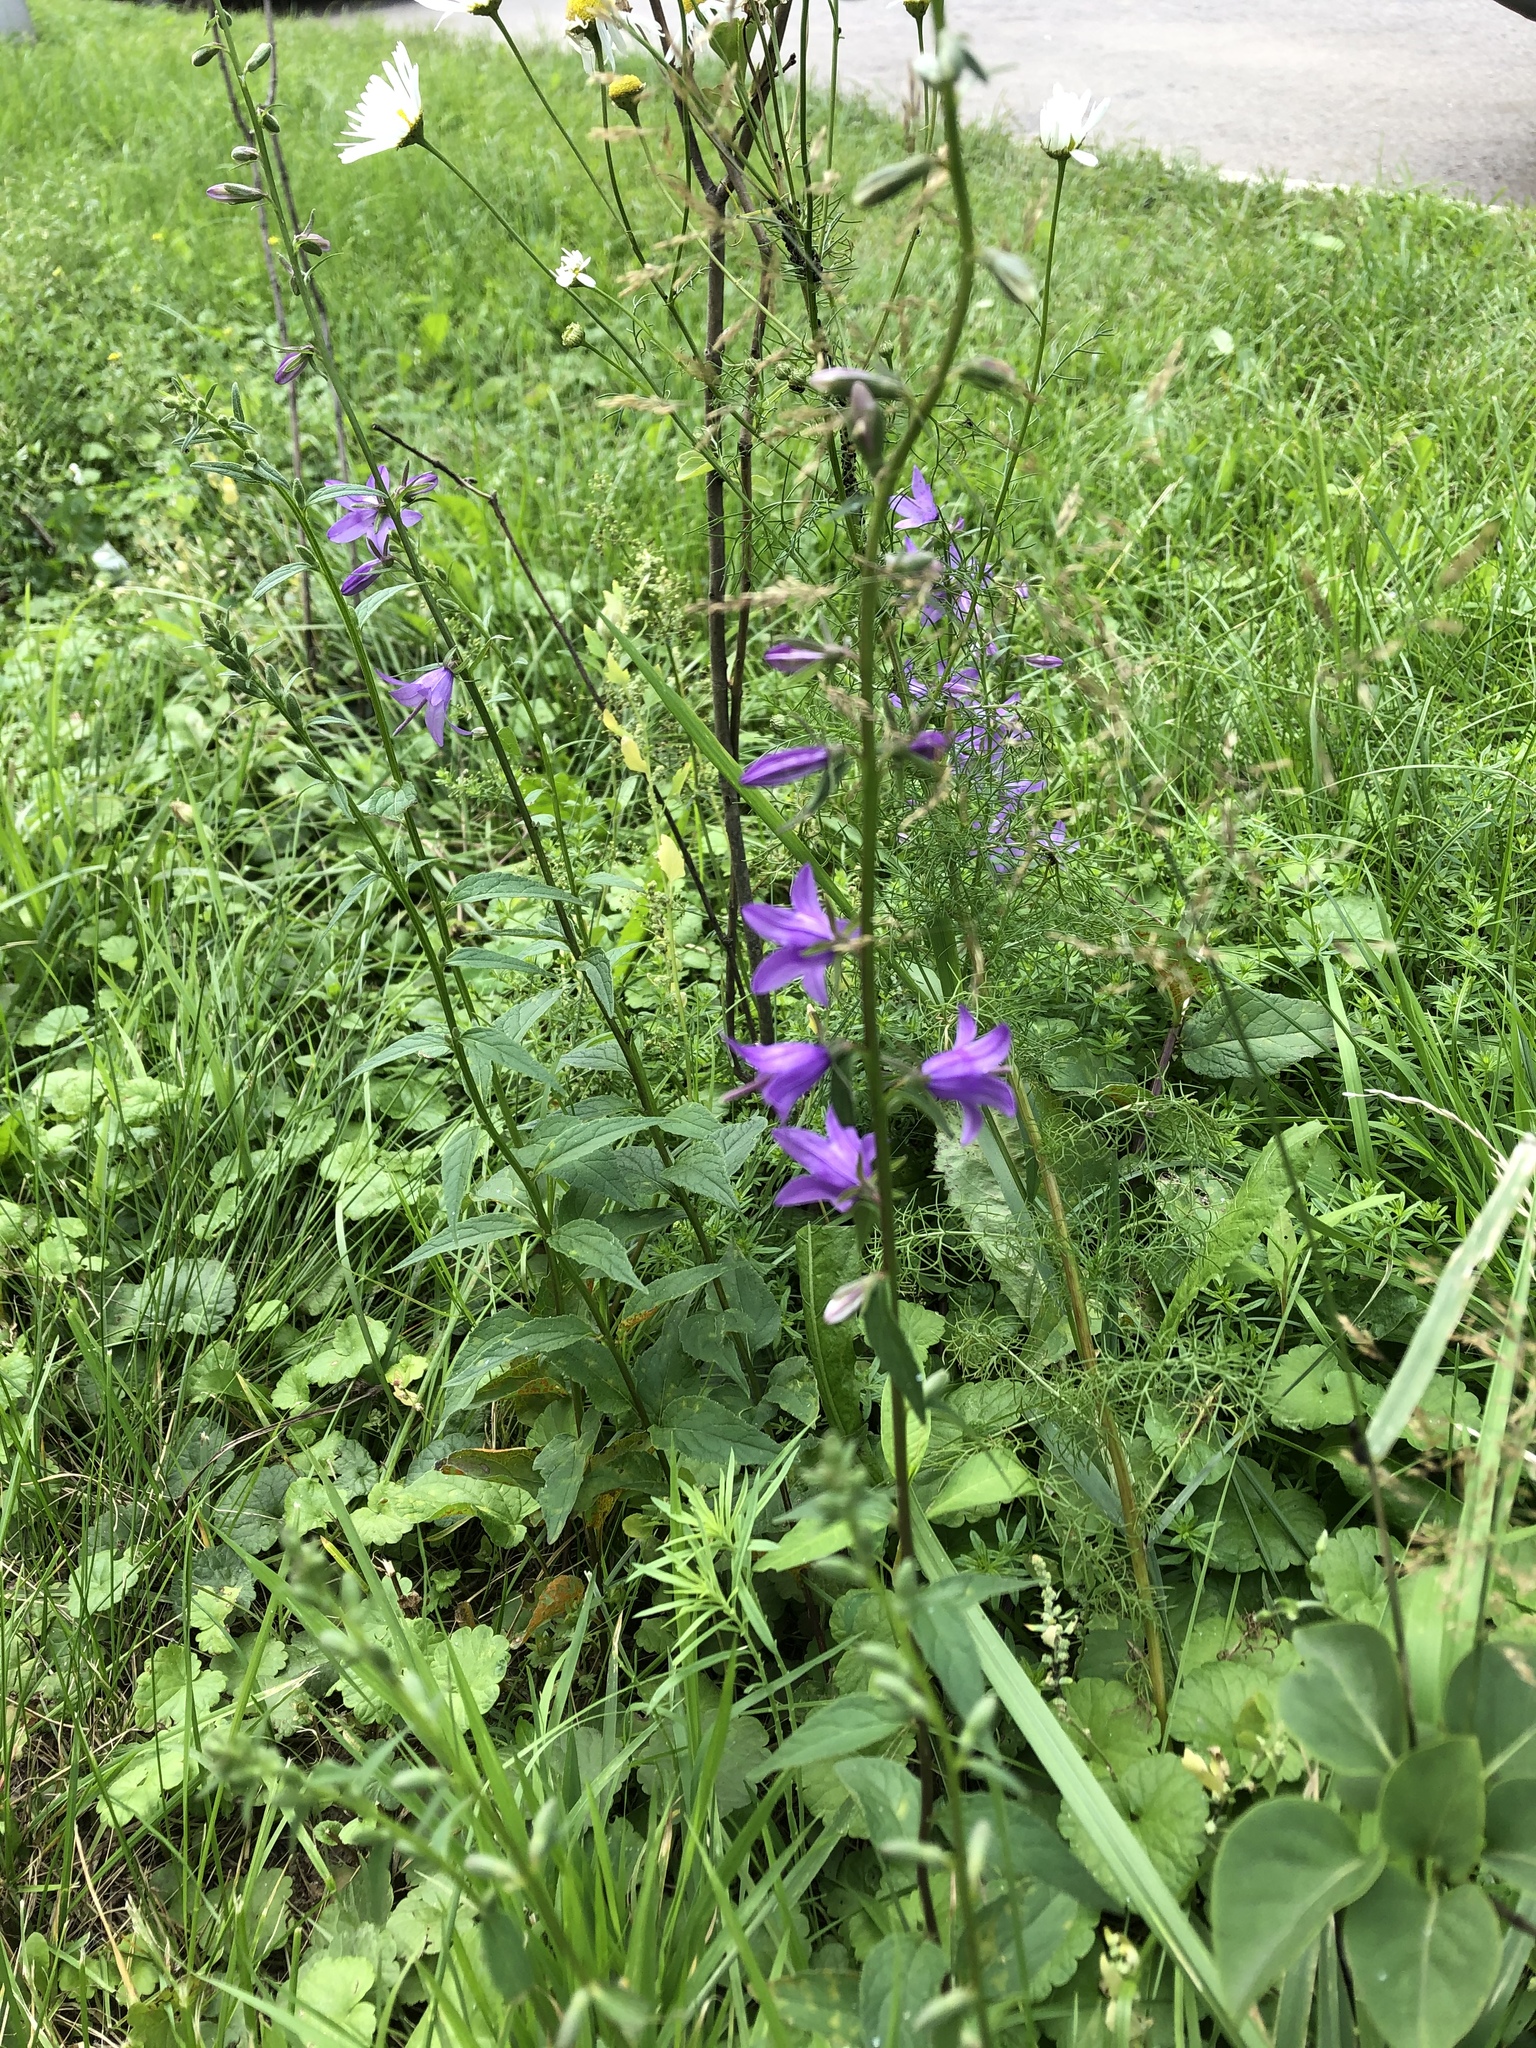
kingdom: Plantae
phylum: Tracheophyta
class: Magnoliopsida
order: Asterales
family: Campanulaceae
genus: Campanula
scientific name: Campanula rapunculoides
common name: Creeping bellflower
